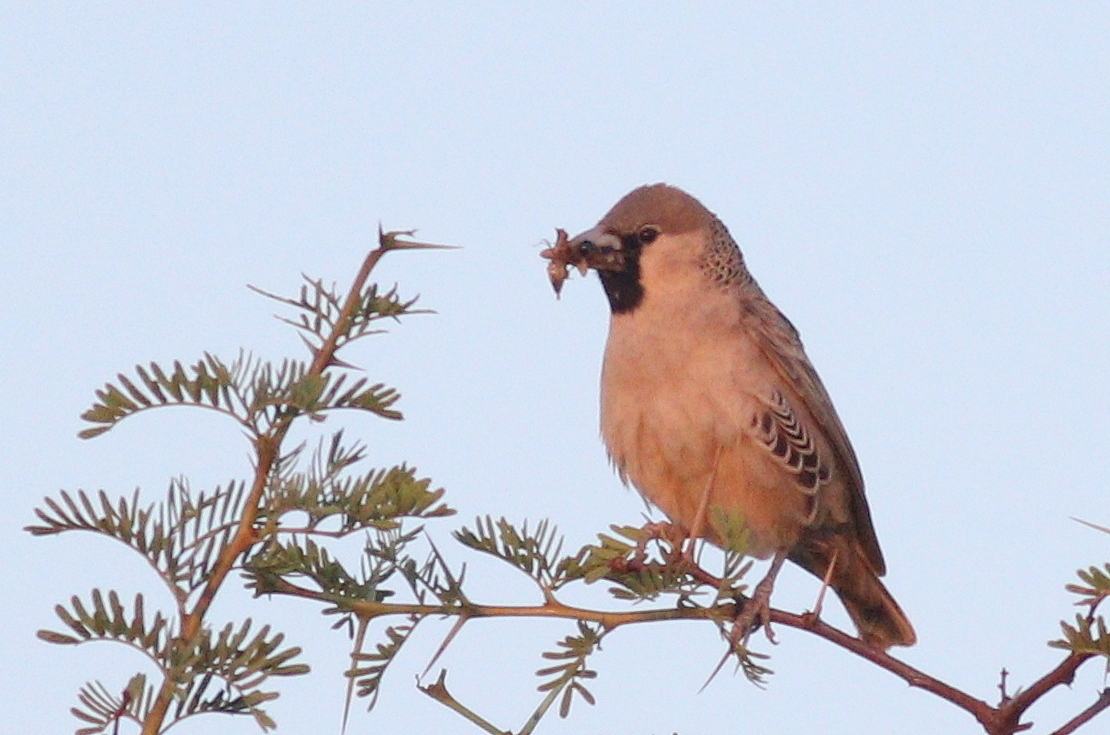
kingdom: Animalia
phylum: Chordata
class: Aves
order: Passeriformes
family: Passeridae
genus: Philetairus
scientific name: Philetairus socius
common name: Sociable weaver
